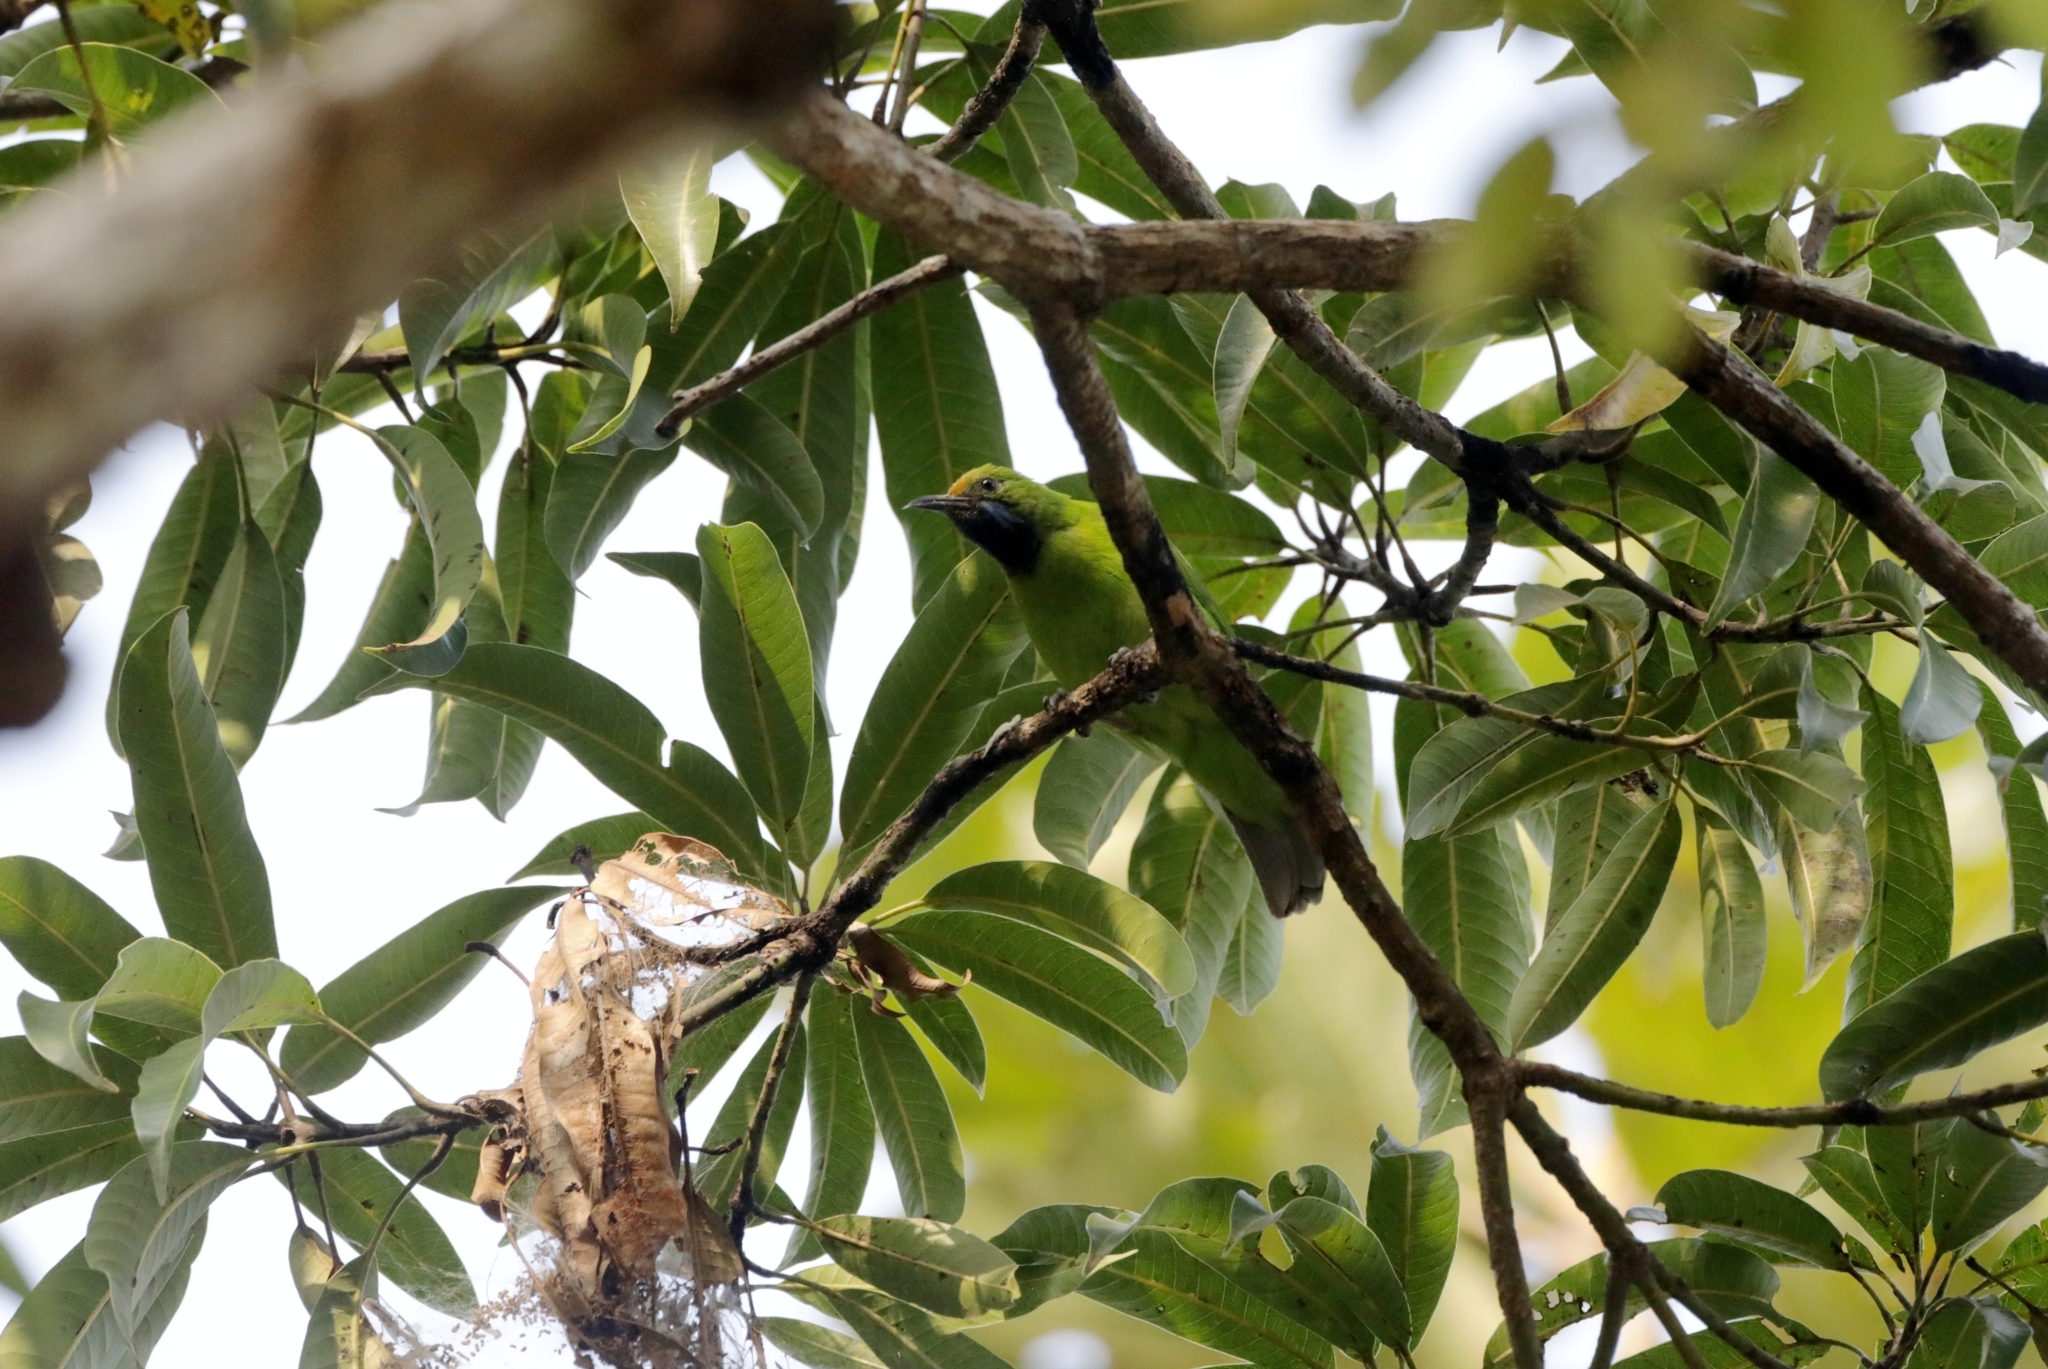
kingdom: Animalia
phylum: Chordata
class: Aves
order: Passeriformes
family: Chloropseidae
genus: Chloropsis
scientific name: Chloropsis aurifrons
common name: Golden-fronted leafbird
